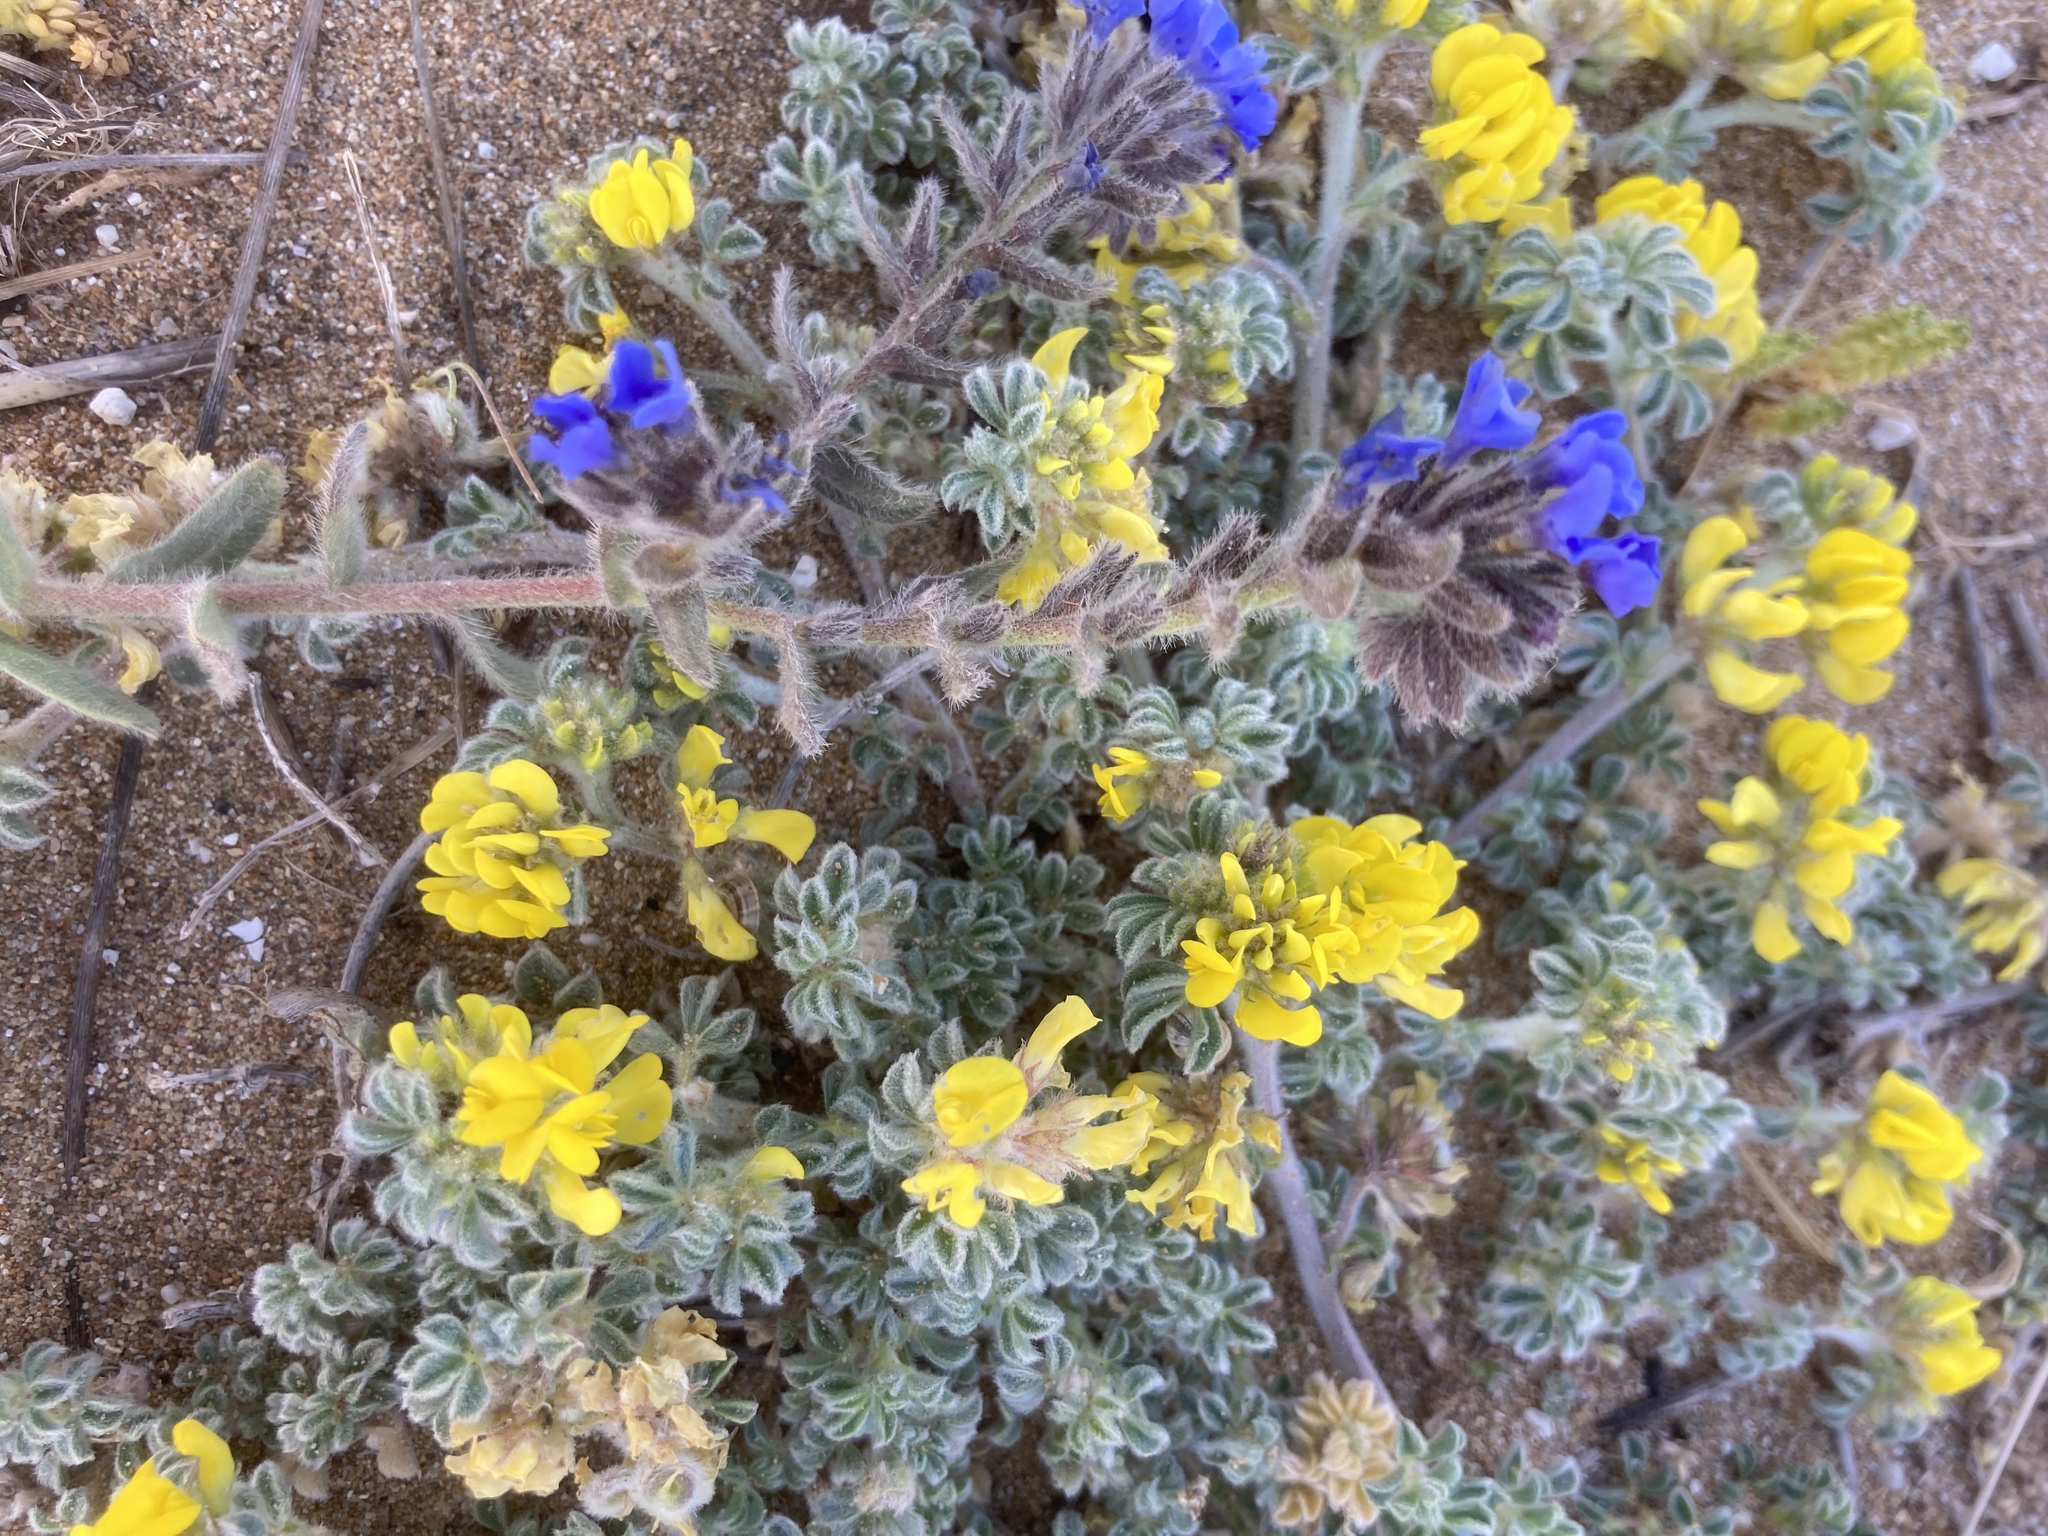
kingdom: Plantae
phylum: Tracheophyta
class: Magnoliopsida
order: Fabales
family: Fabaceae
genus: Medicago
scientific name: Medicago marina
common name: Sea medick
